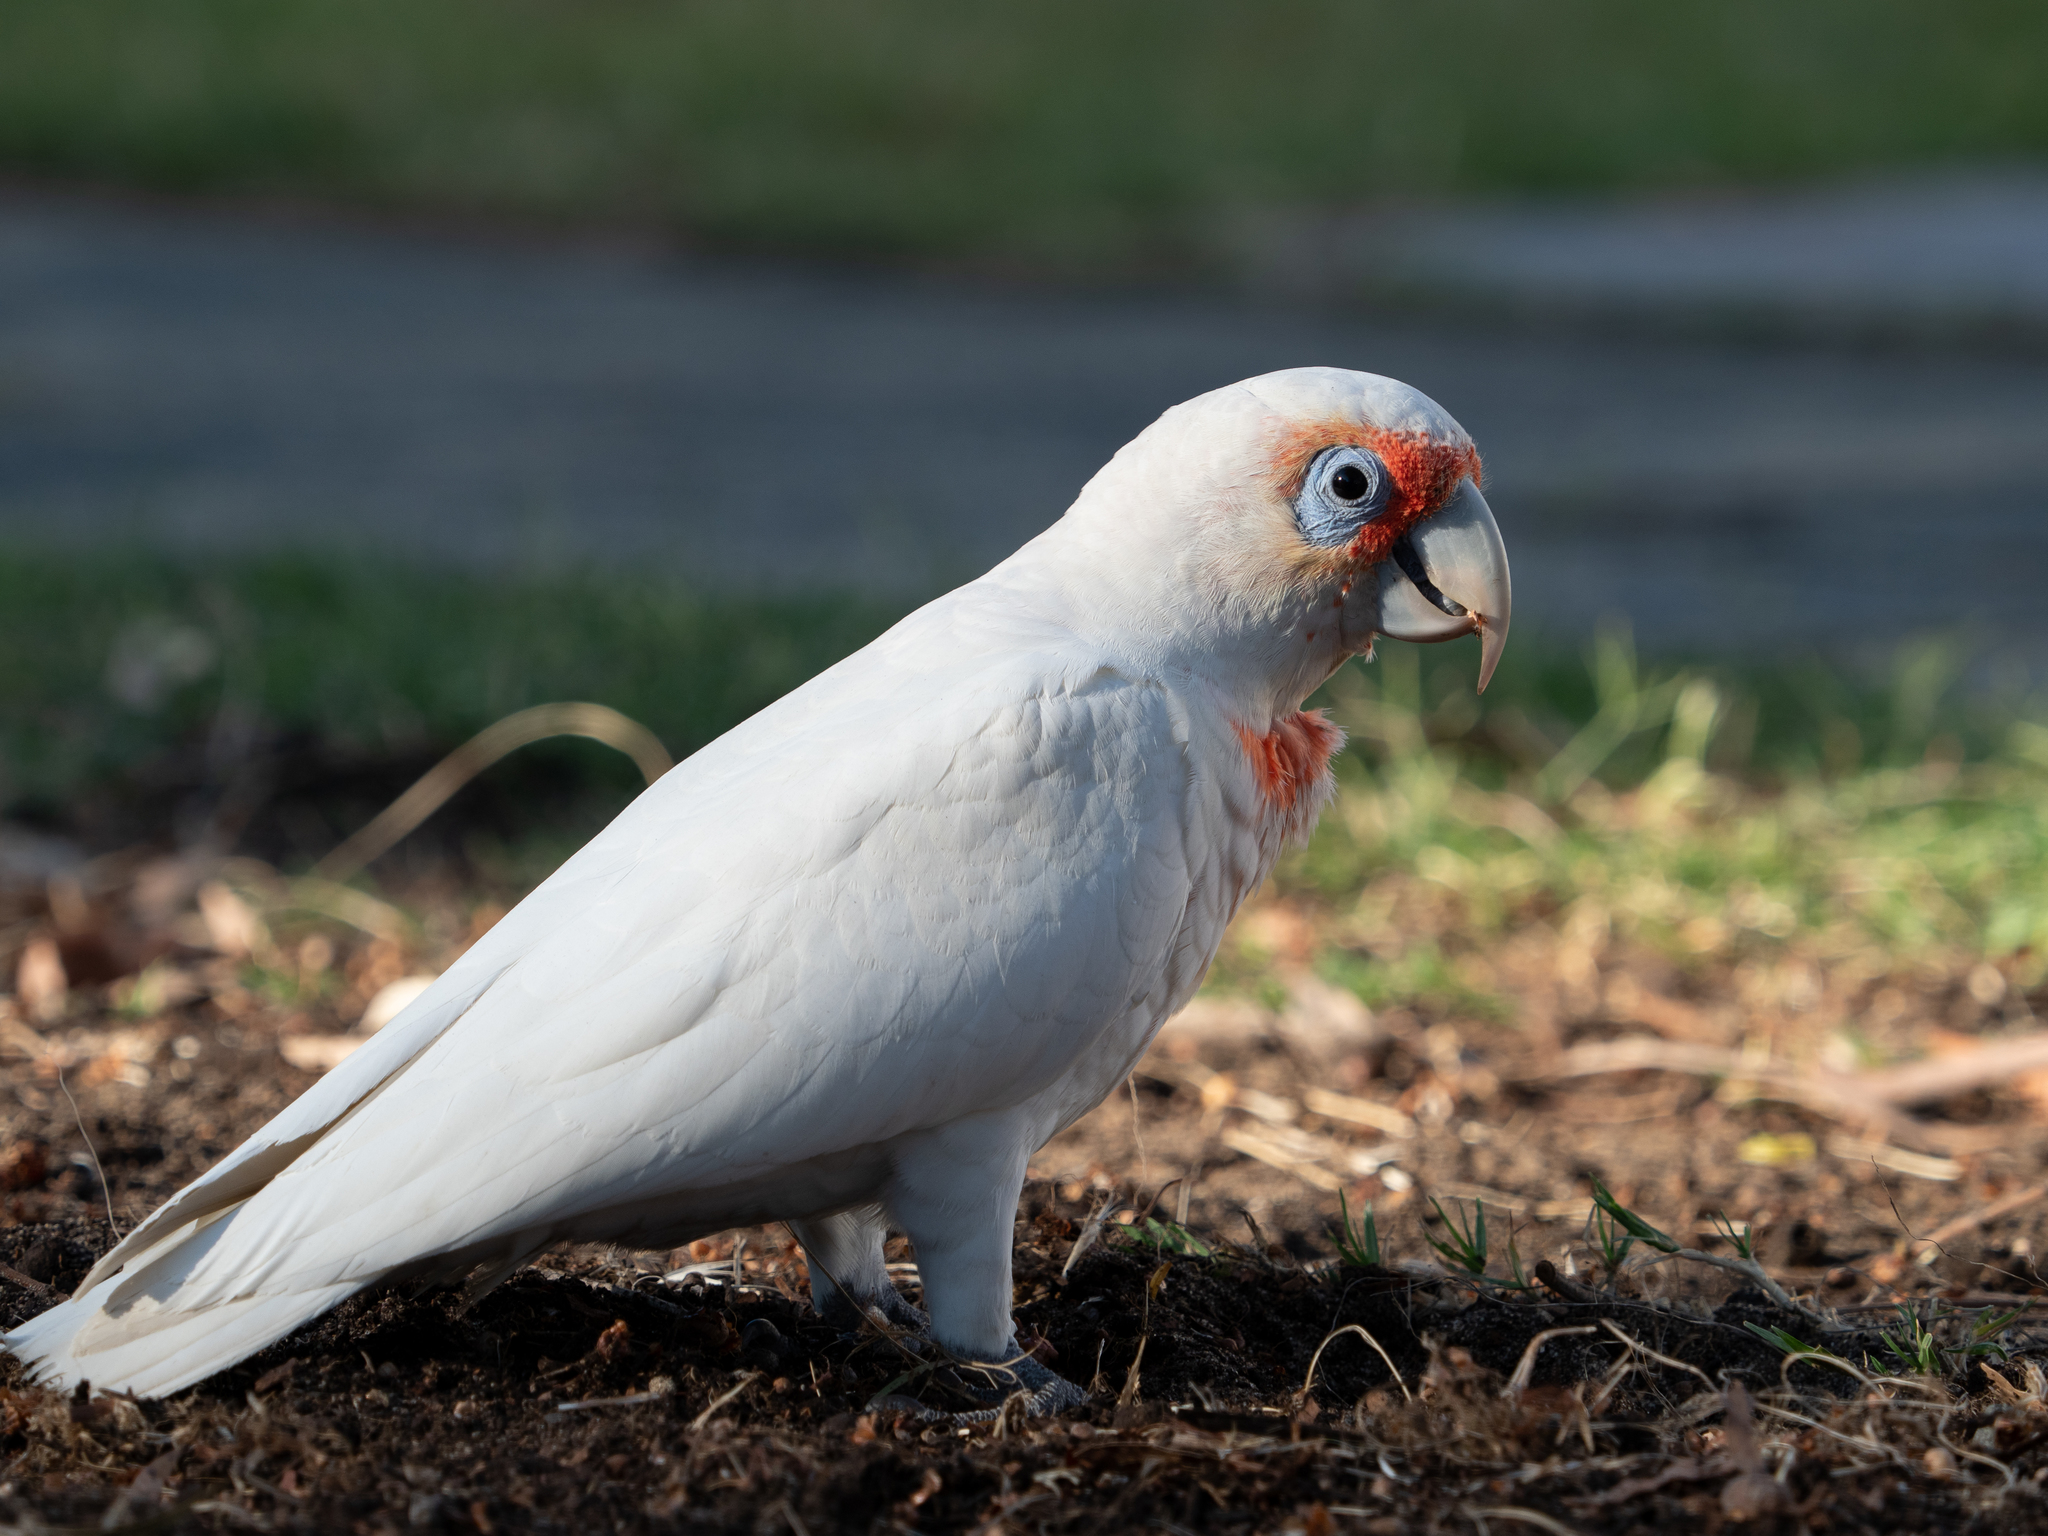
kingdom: Animalia
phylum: Chordata
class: Aves
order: Psittaciformes
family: Psittacidae
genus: Cacatua
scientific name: Cacatua tenuirostris
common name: Long-billed corella
